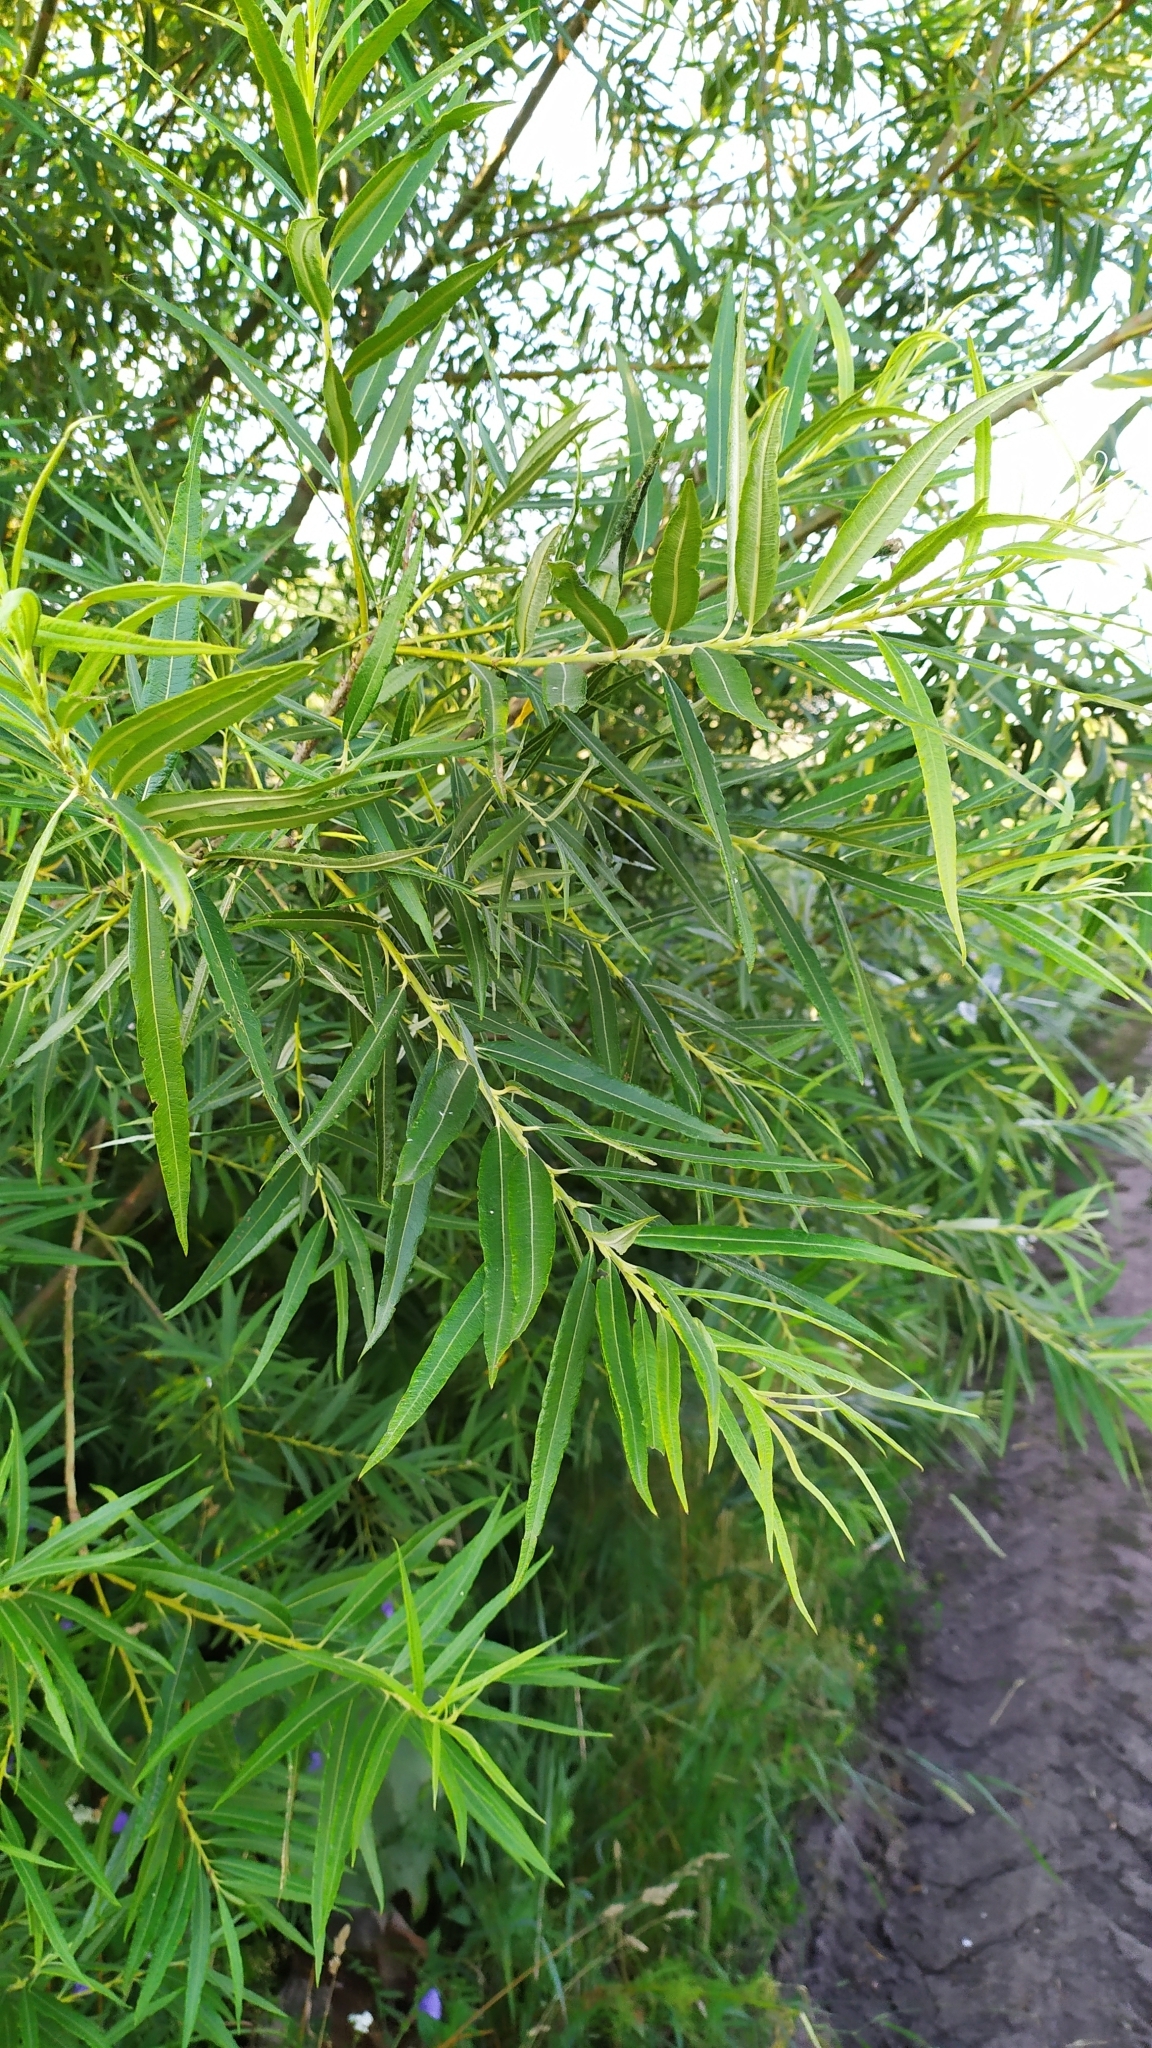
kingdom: Plantae
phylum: Tracheophyta
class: Magnoliopsida
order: Malpighiales
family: Salicaceae
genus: Salix
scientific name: Salix viminalis
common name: Osier
